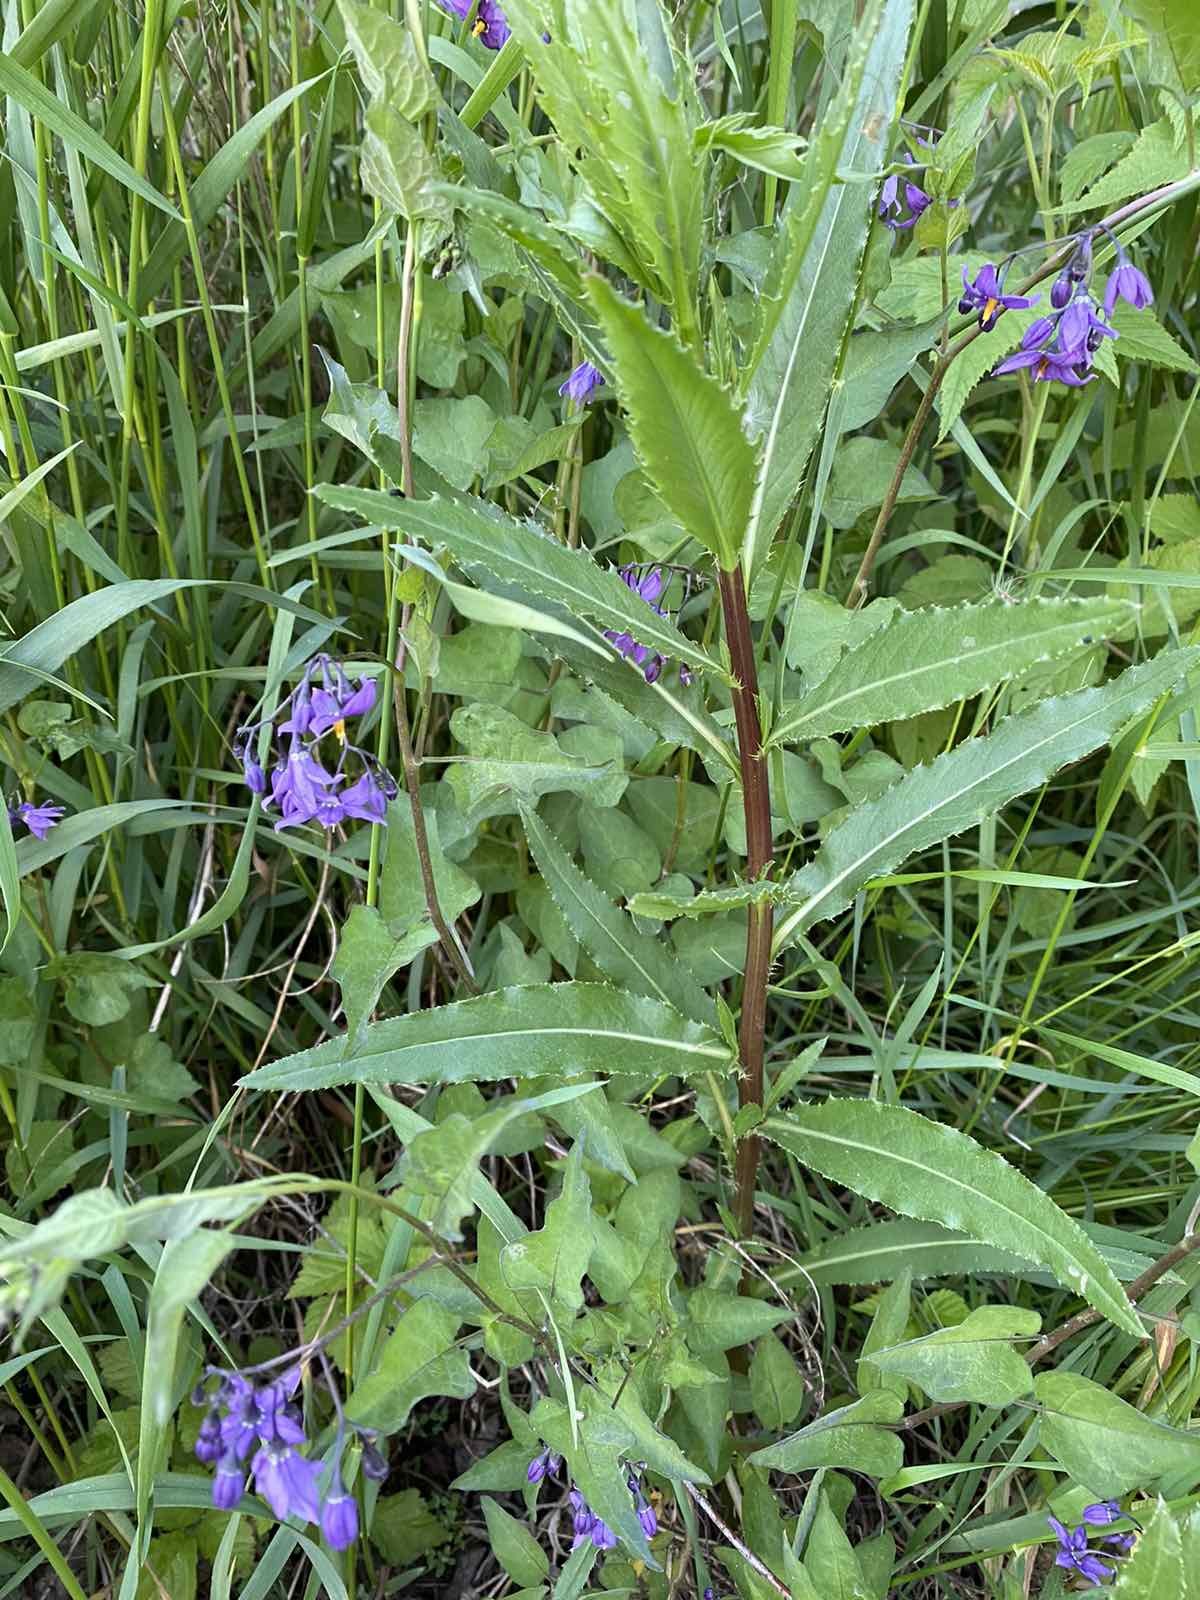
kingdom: Plantae
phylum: Tracheophyta
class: Magnoliopsida
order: Solanales
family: Solanaceae
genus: Solanum
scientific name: Solanum dulcamara
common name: Climbing nightshade
